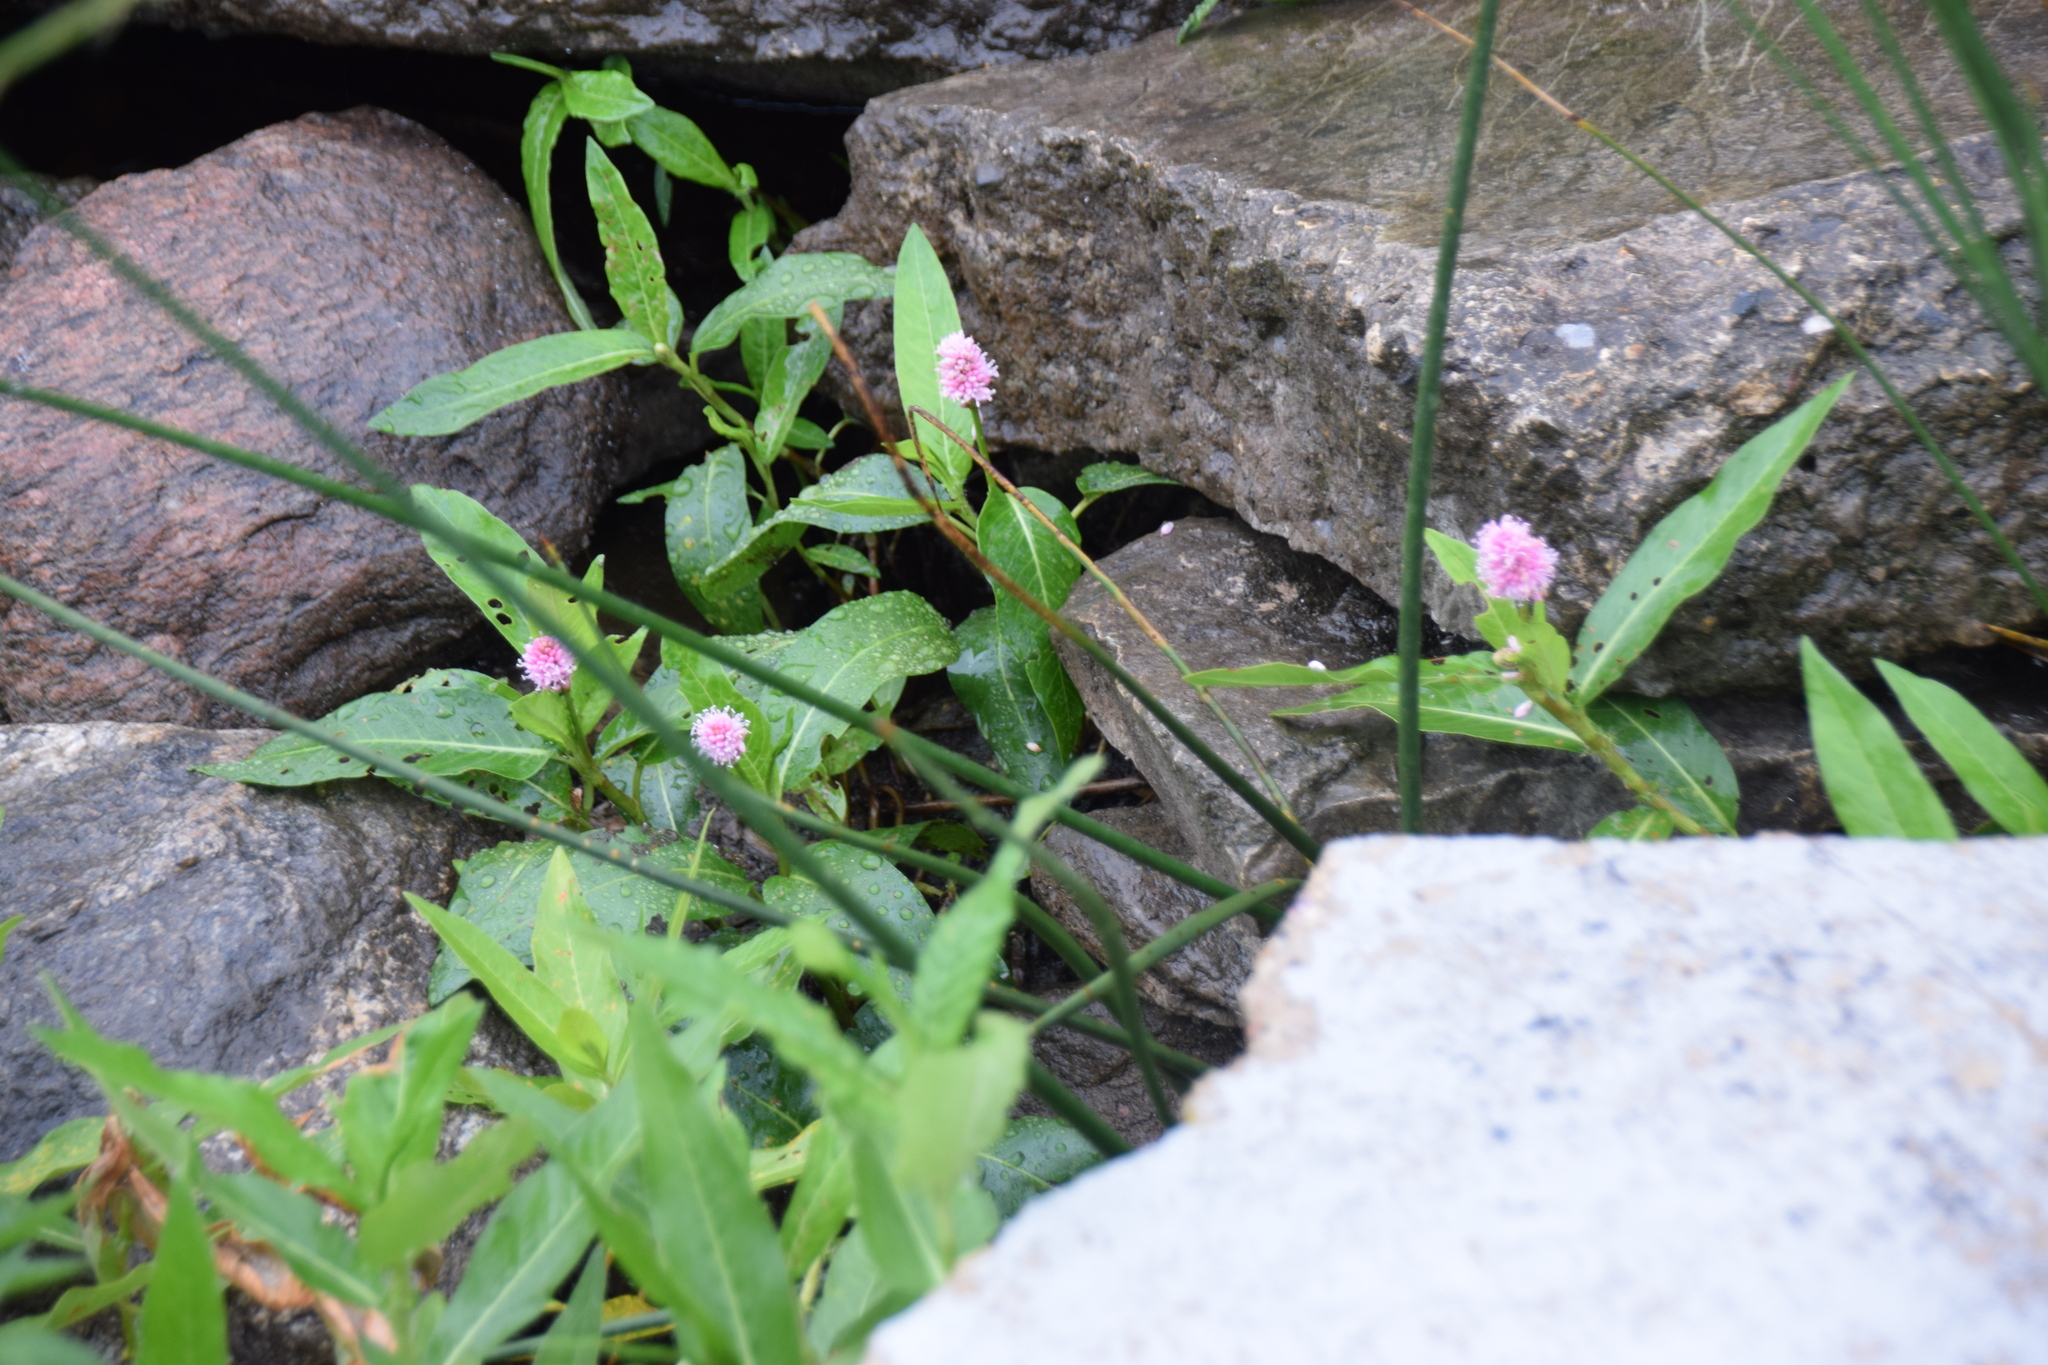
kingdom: Plantae
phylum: Tracheophyta
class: Magnoliopsida
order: Caryophyllales
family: Polygonaceae
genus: Persicaria
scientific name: Persicaria amphibia
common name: Amphibious bistort
